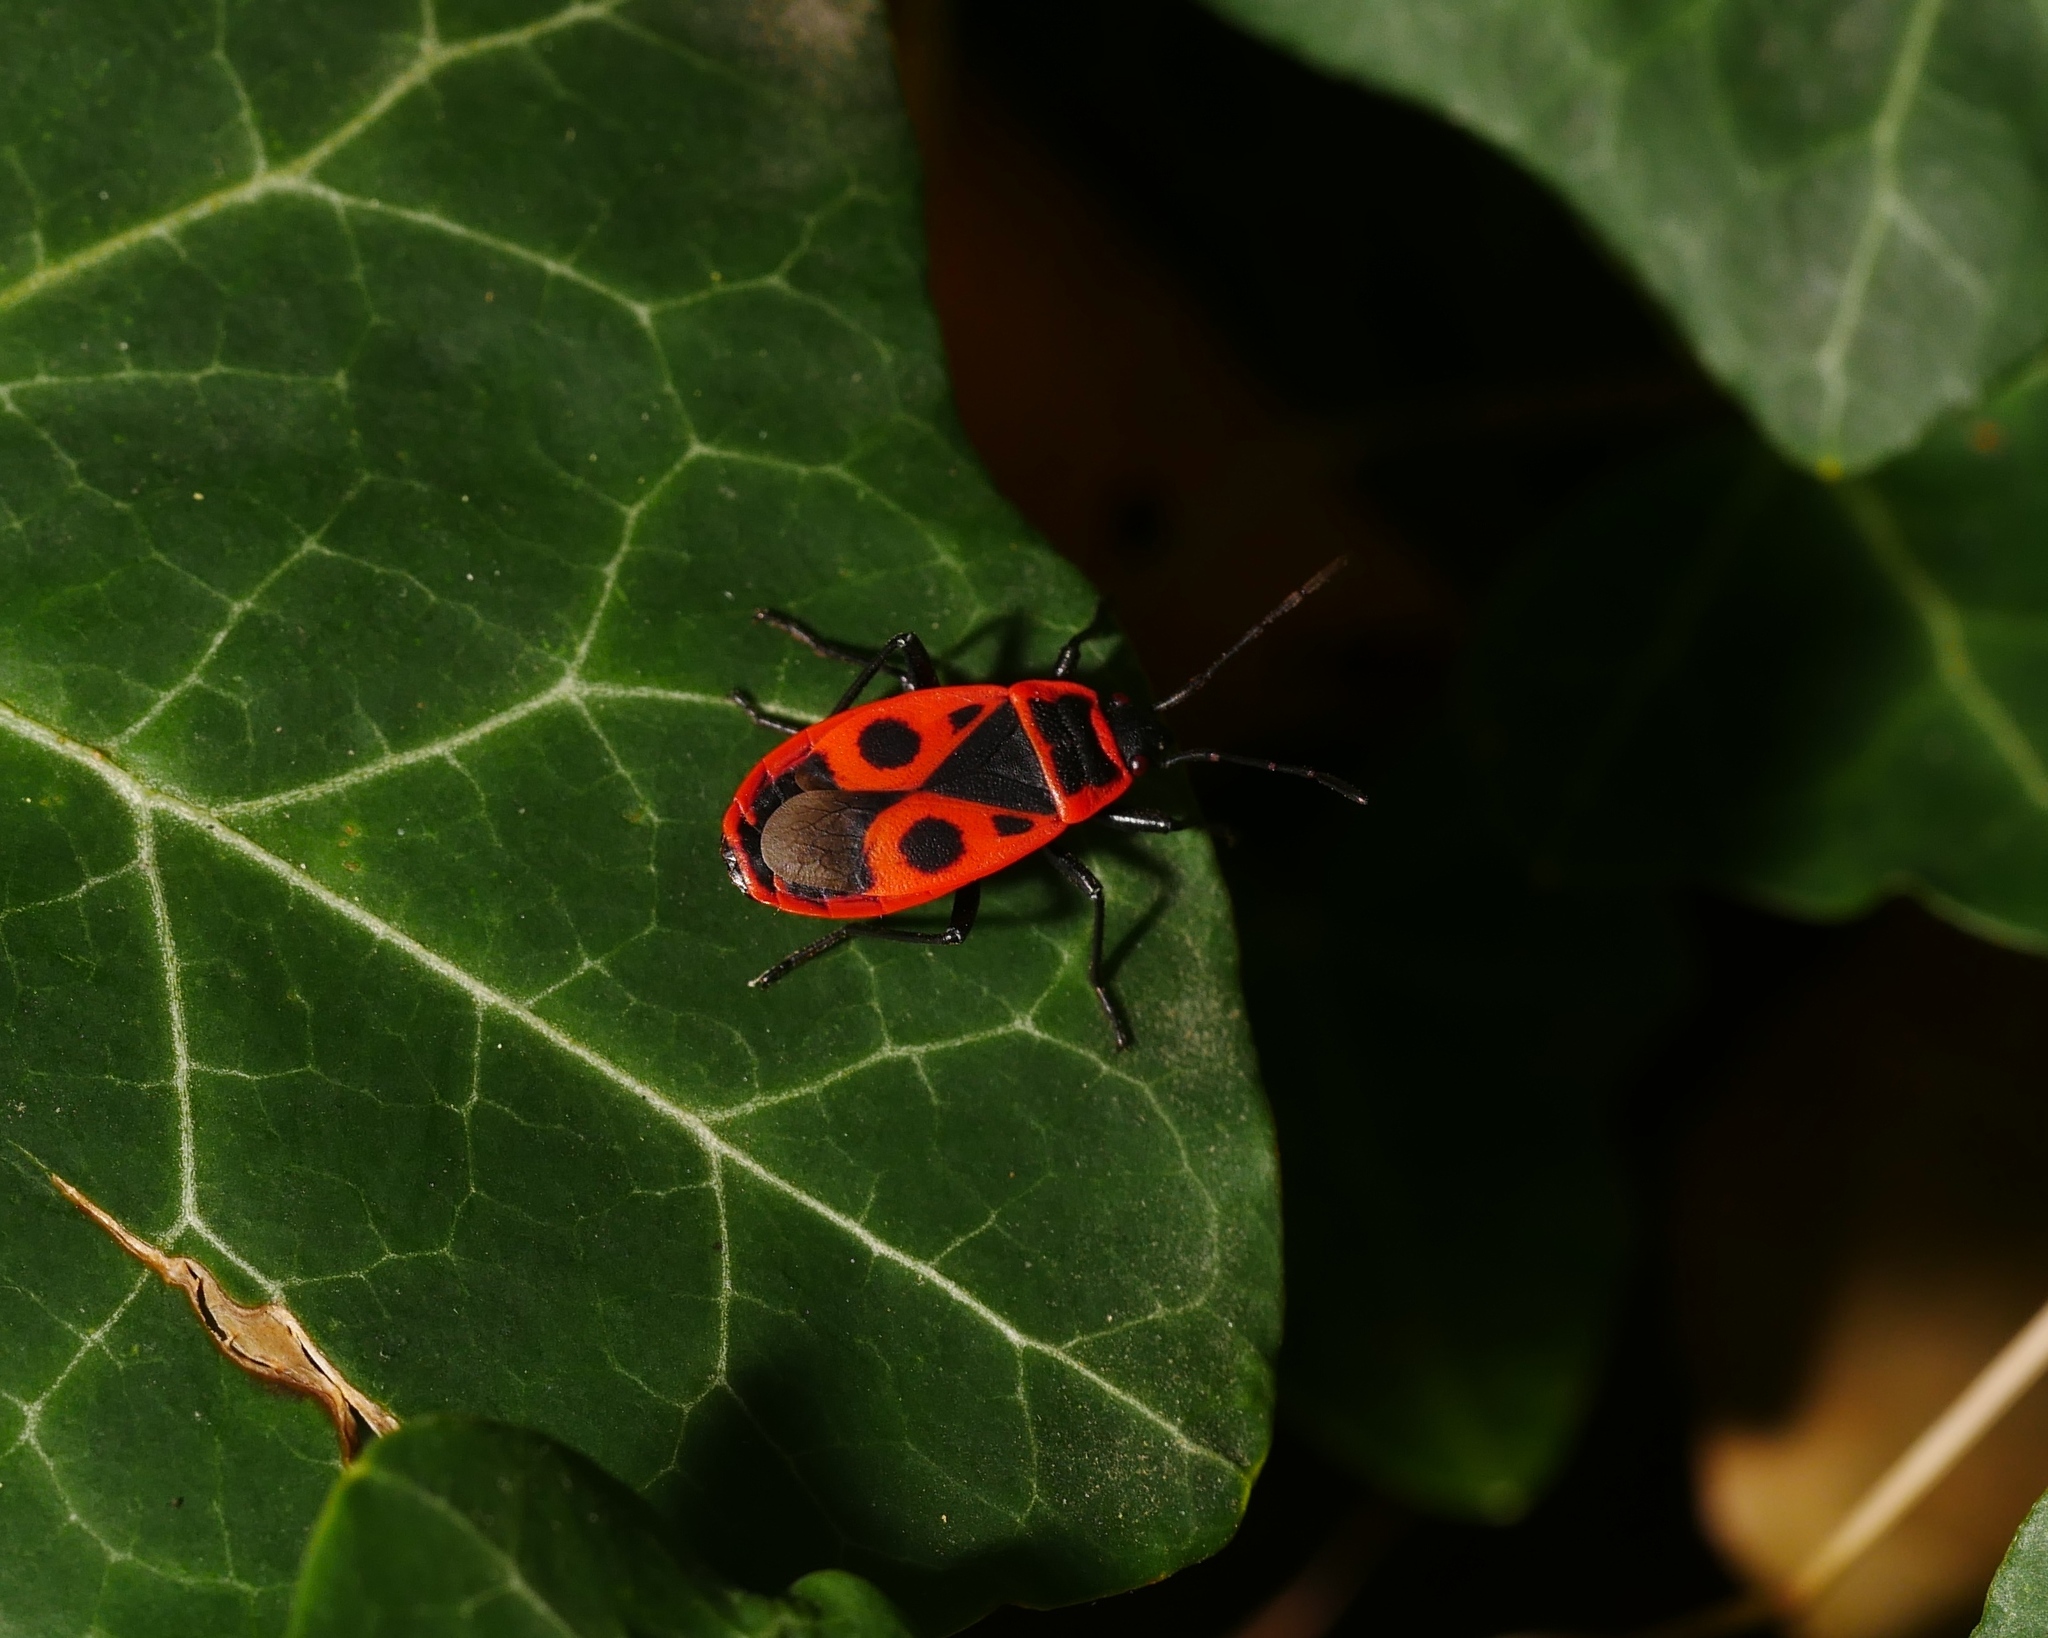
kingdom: Animalia
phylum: Arthropoda
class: Insecta
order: Hemiptera
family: Pyrrhocoridae
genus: Pyrrhocoris
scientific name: Pyrrhocoris apterus
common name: Firebug
